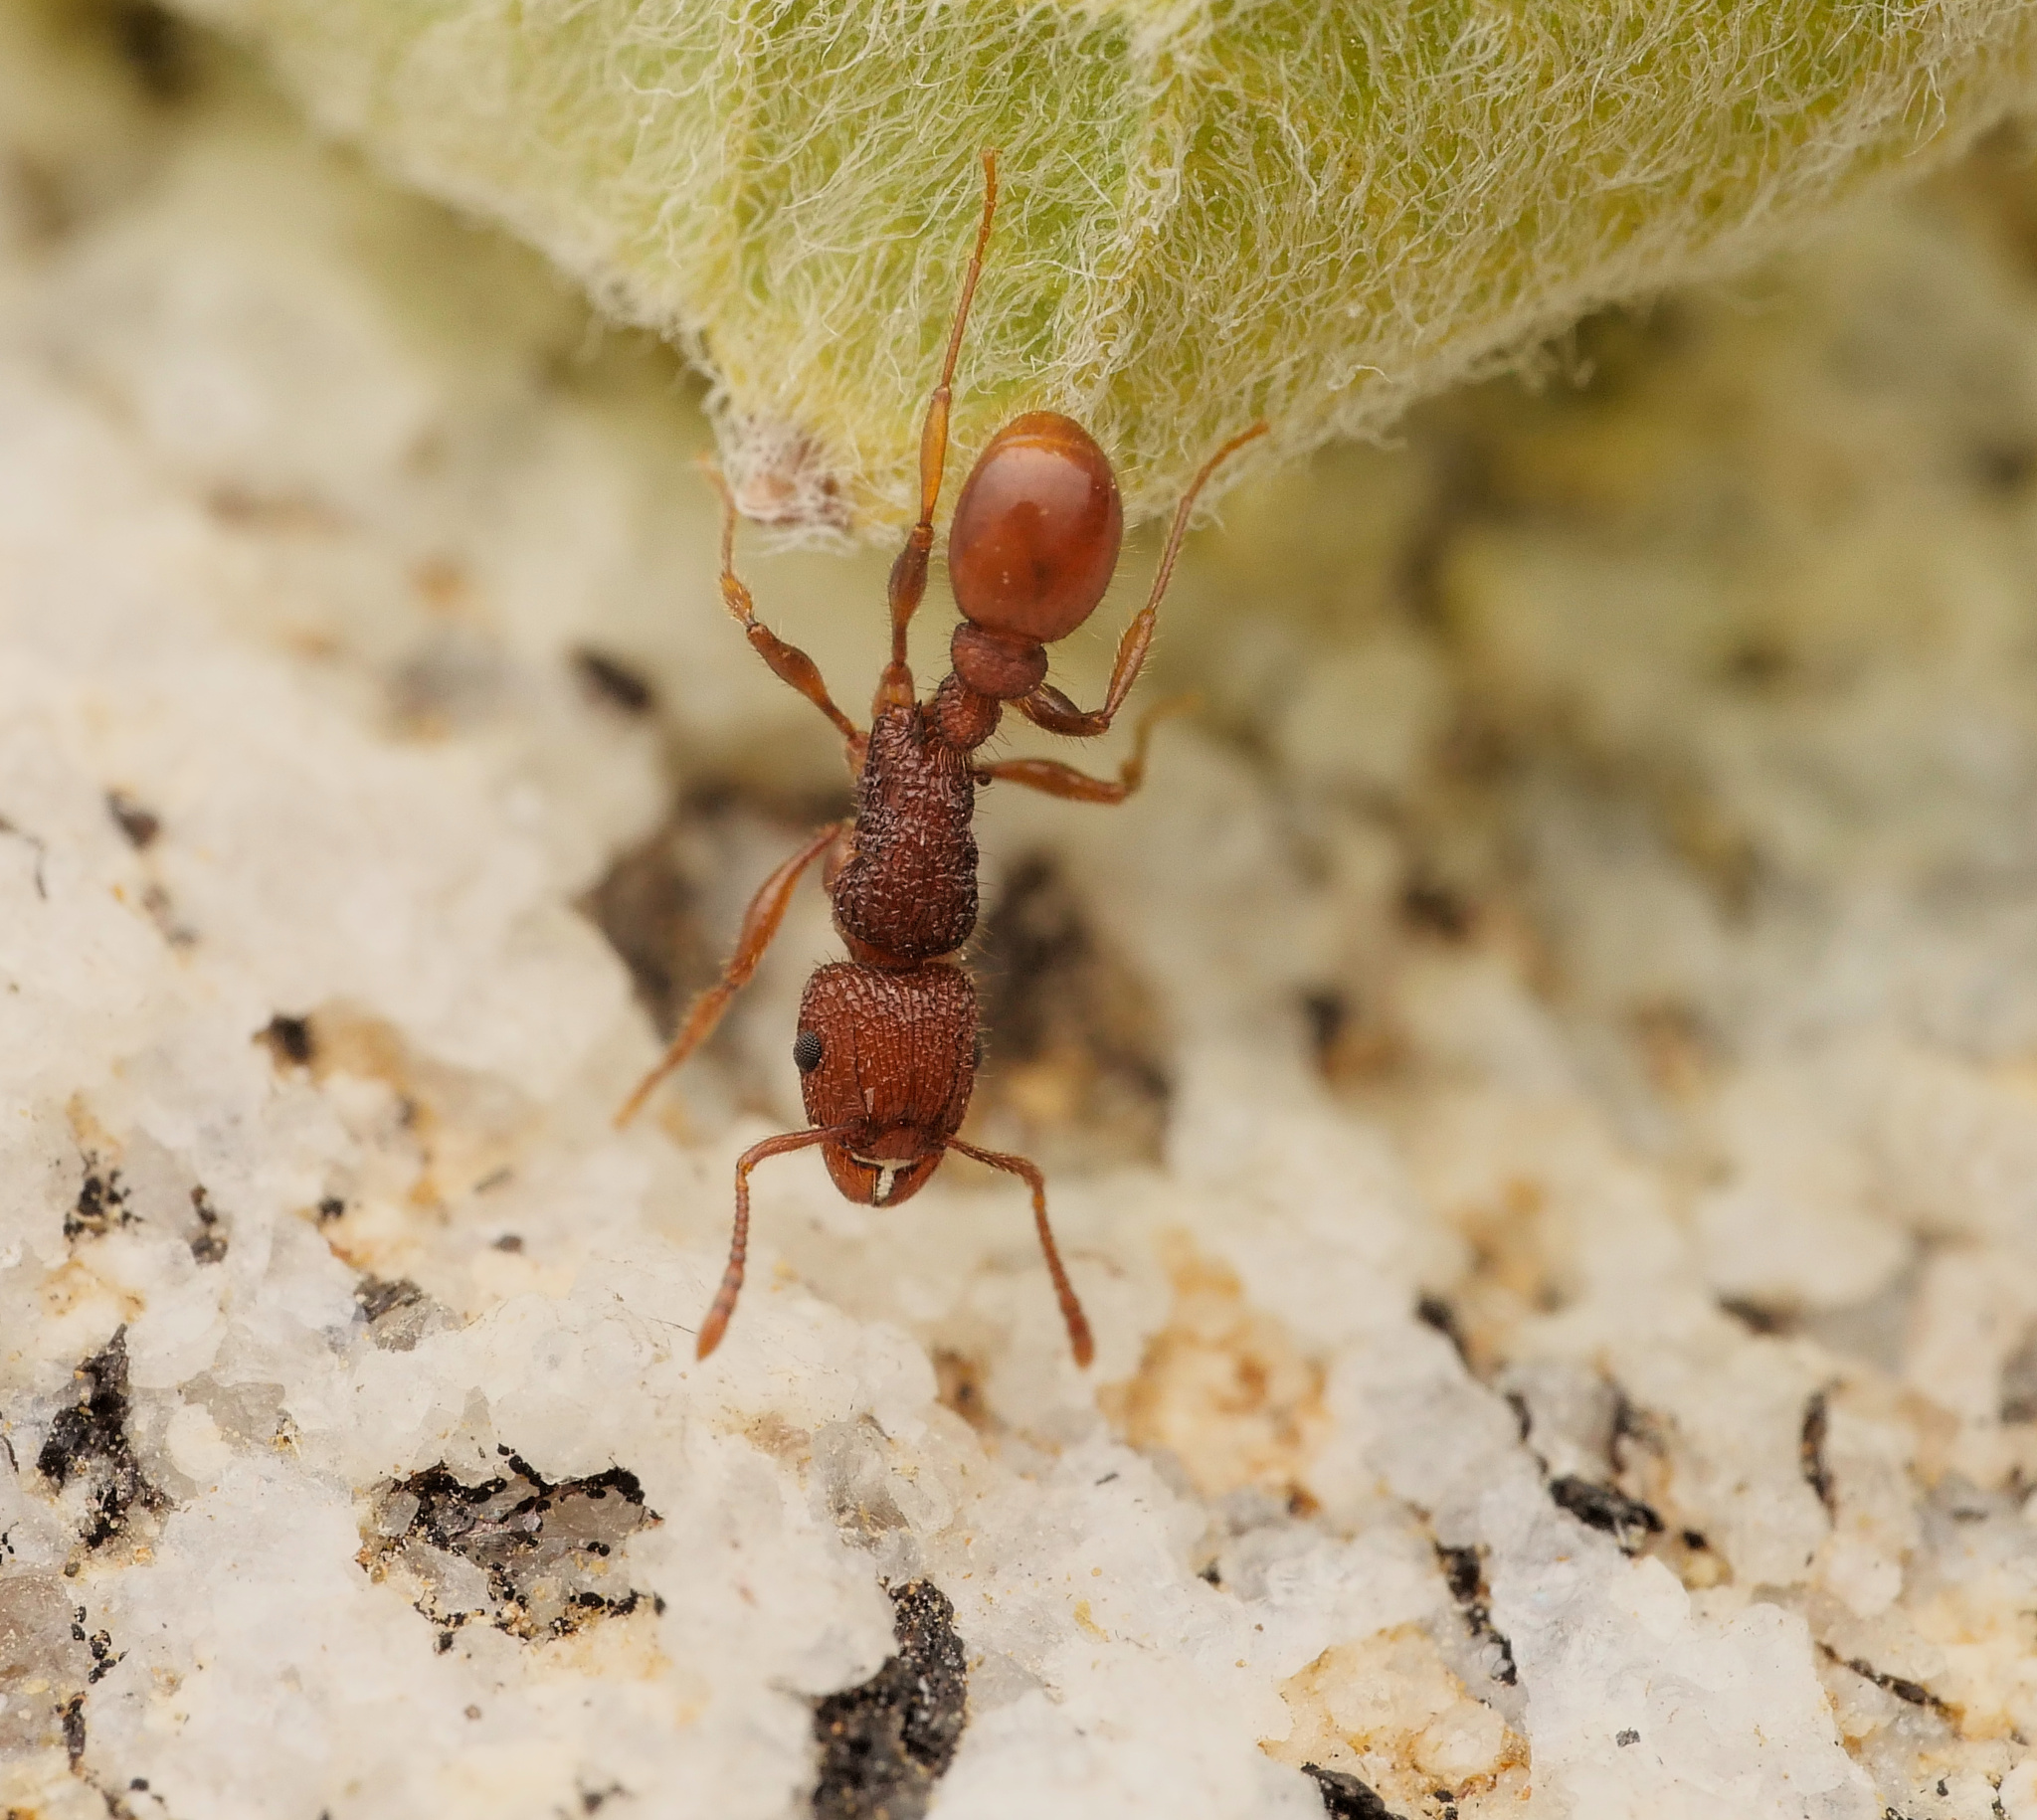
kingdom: Animalia
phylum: Arthropoda
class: Insecta
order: Hymenoptera
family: Formicidae
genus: Tetramorium
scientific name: Tetramorium spinosum
